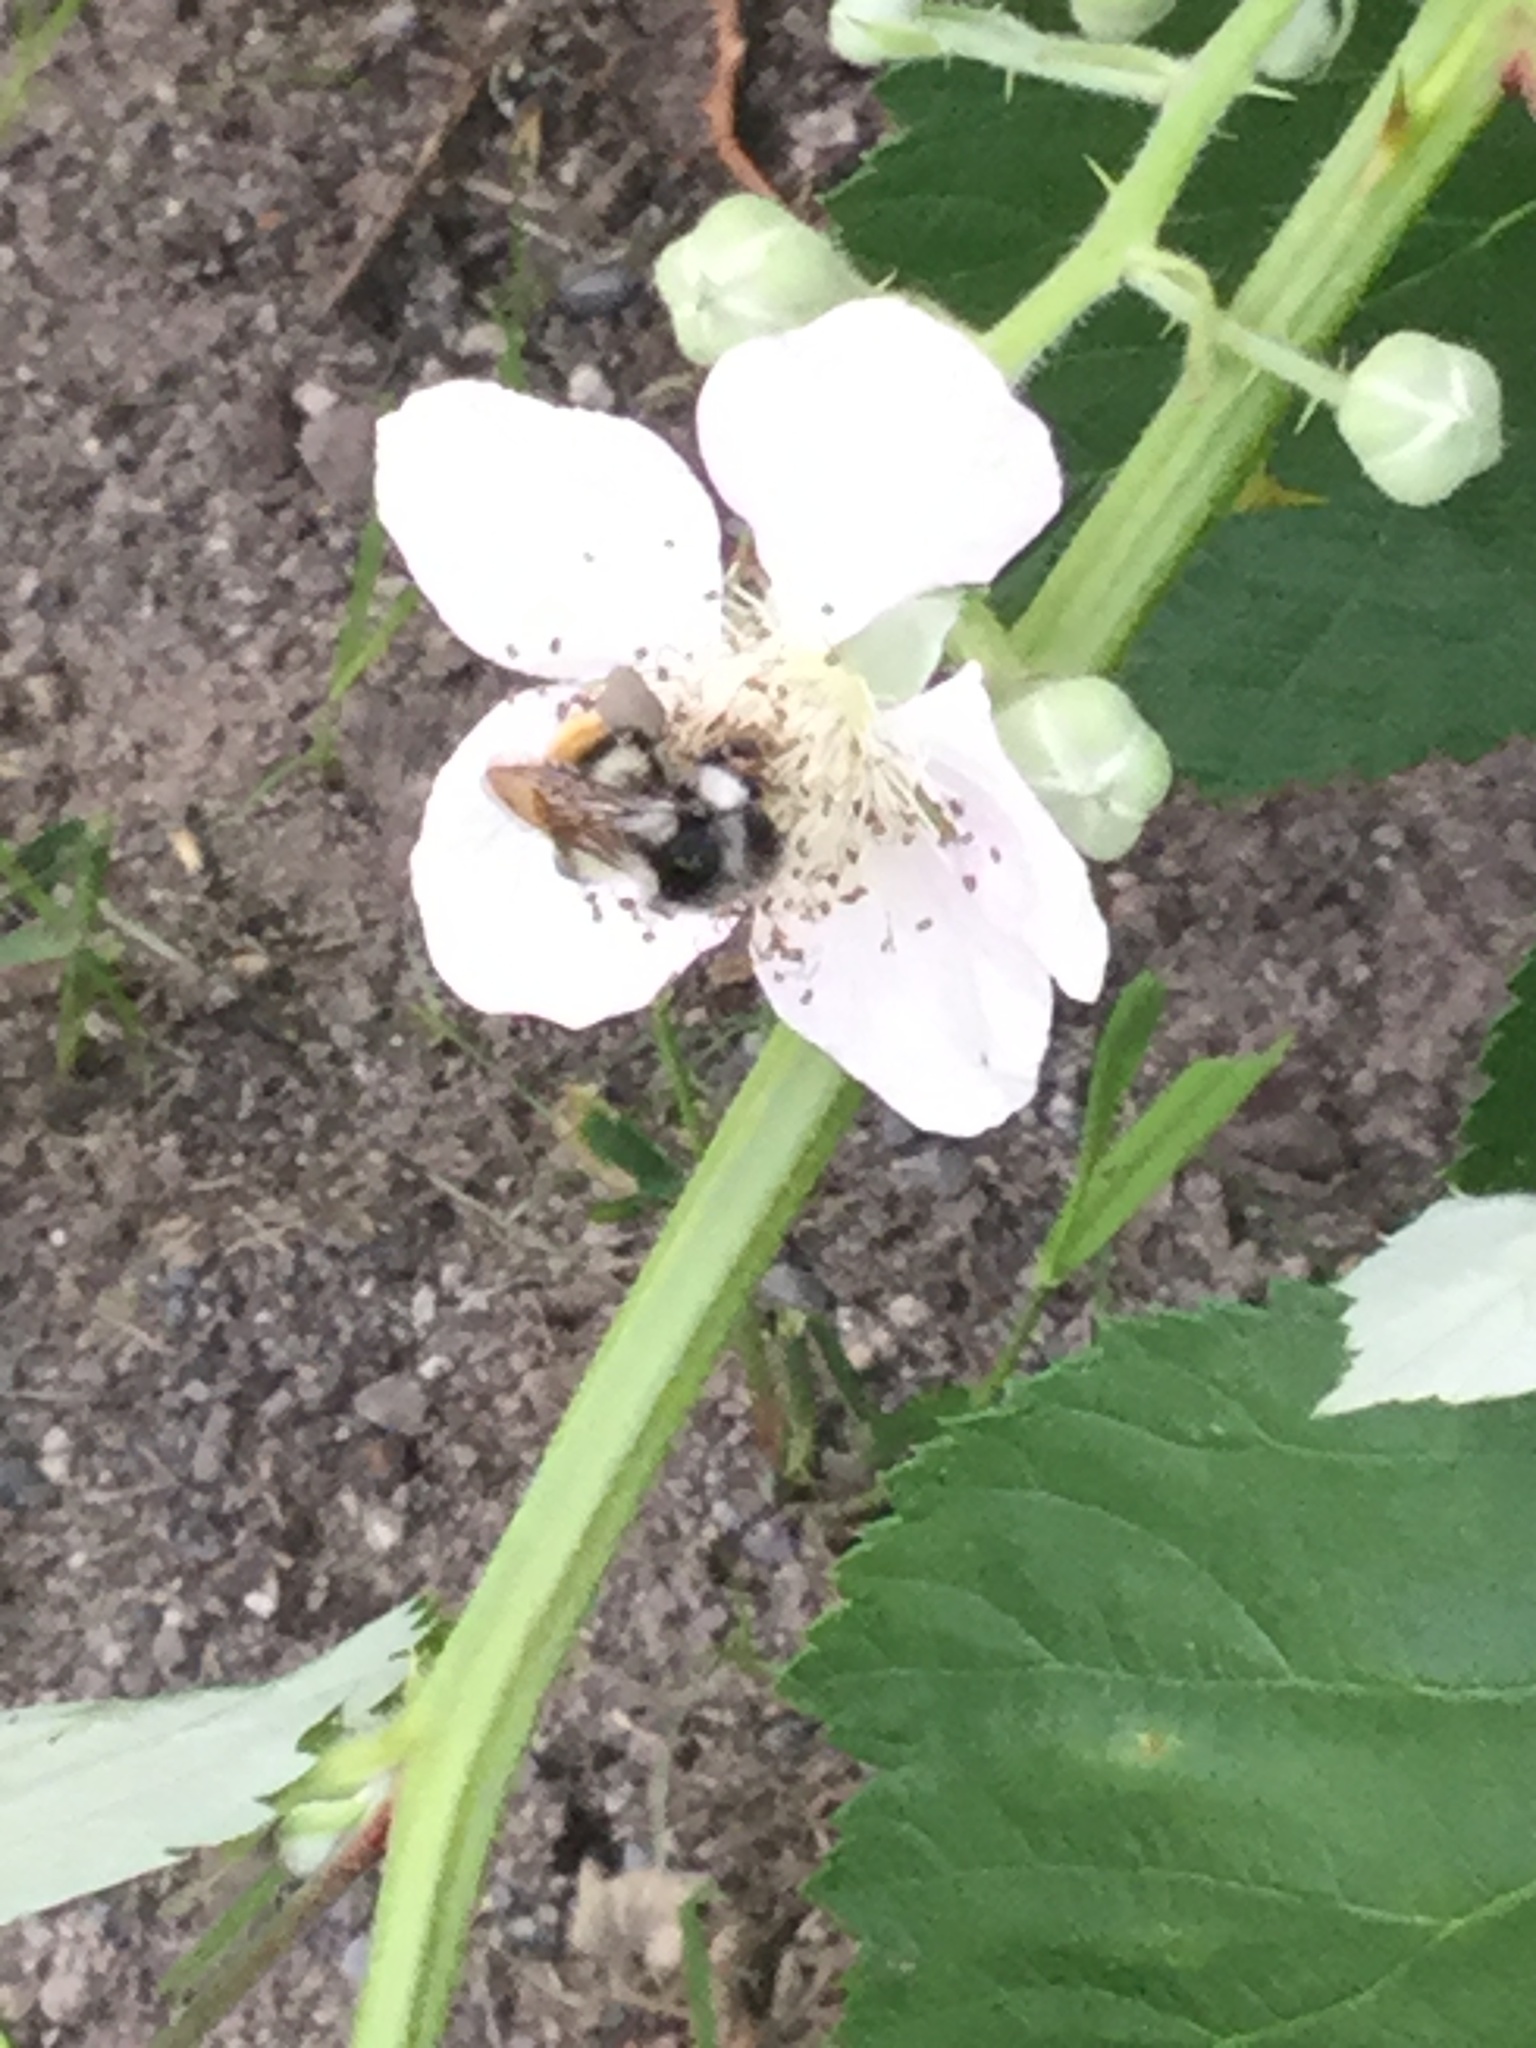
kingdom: Animalia
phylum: Arthropoda
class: Insecta
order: Hymenoptera
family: Apidae
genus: Bombus
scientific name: Bombus vancouverensis
